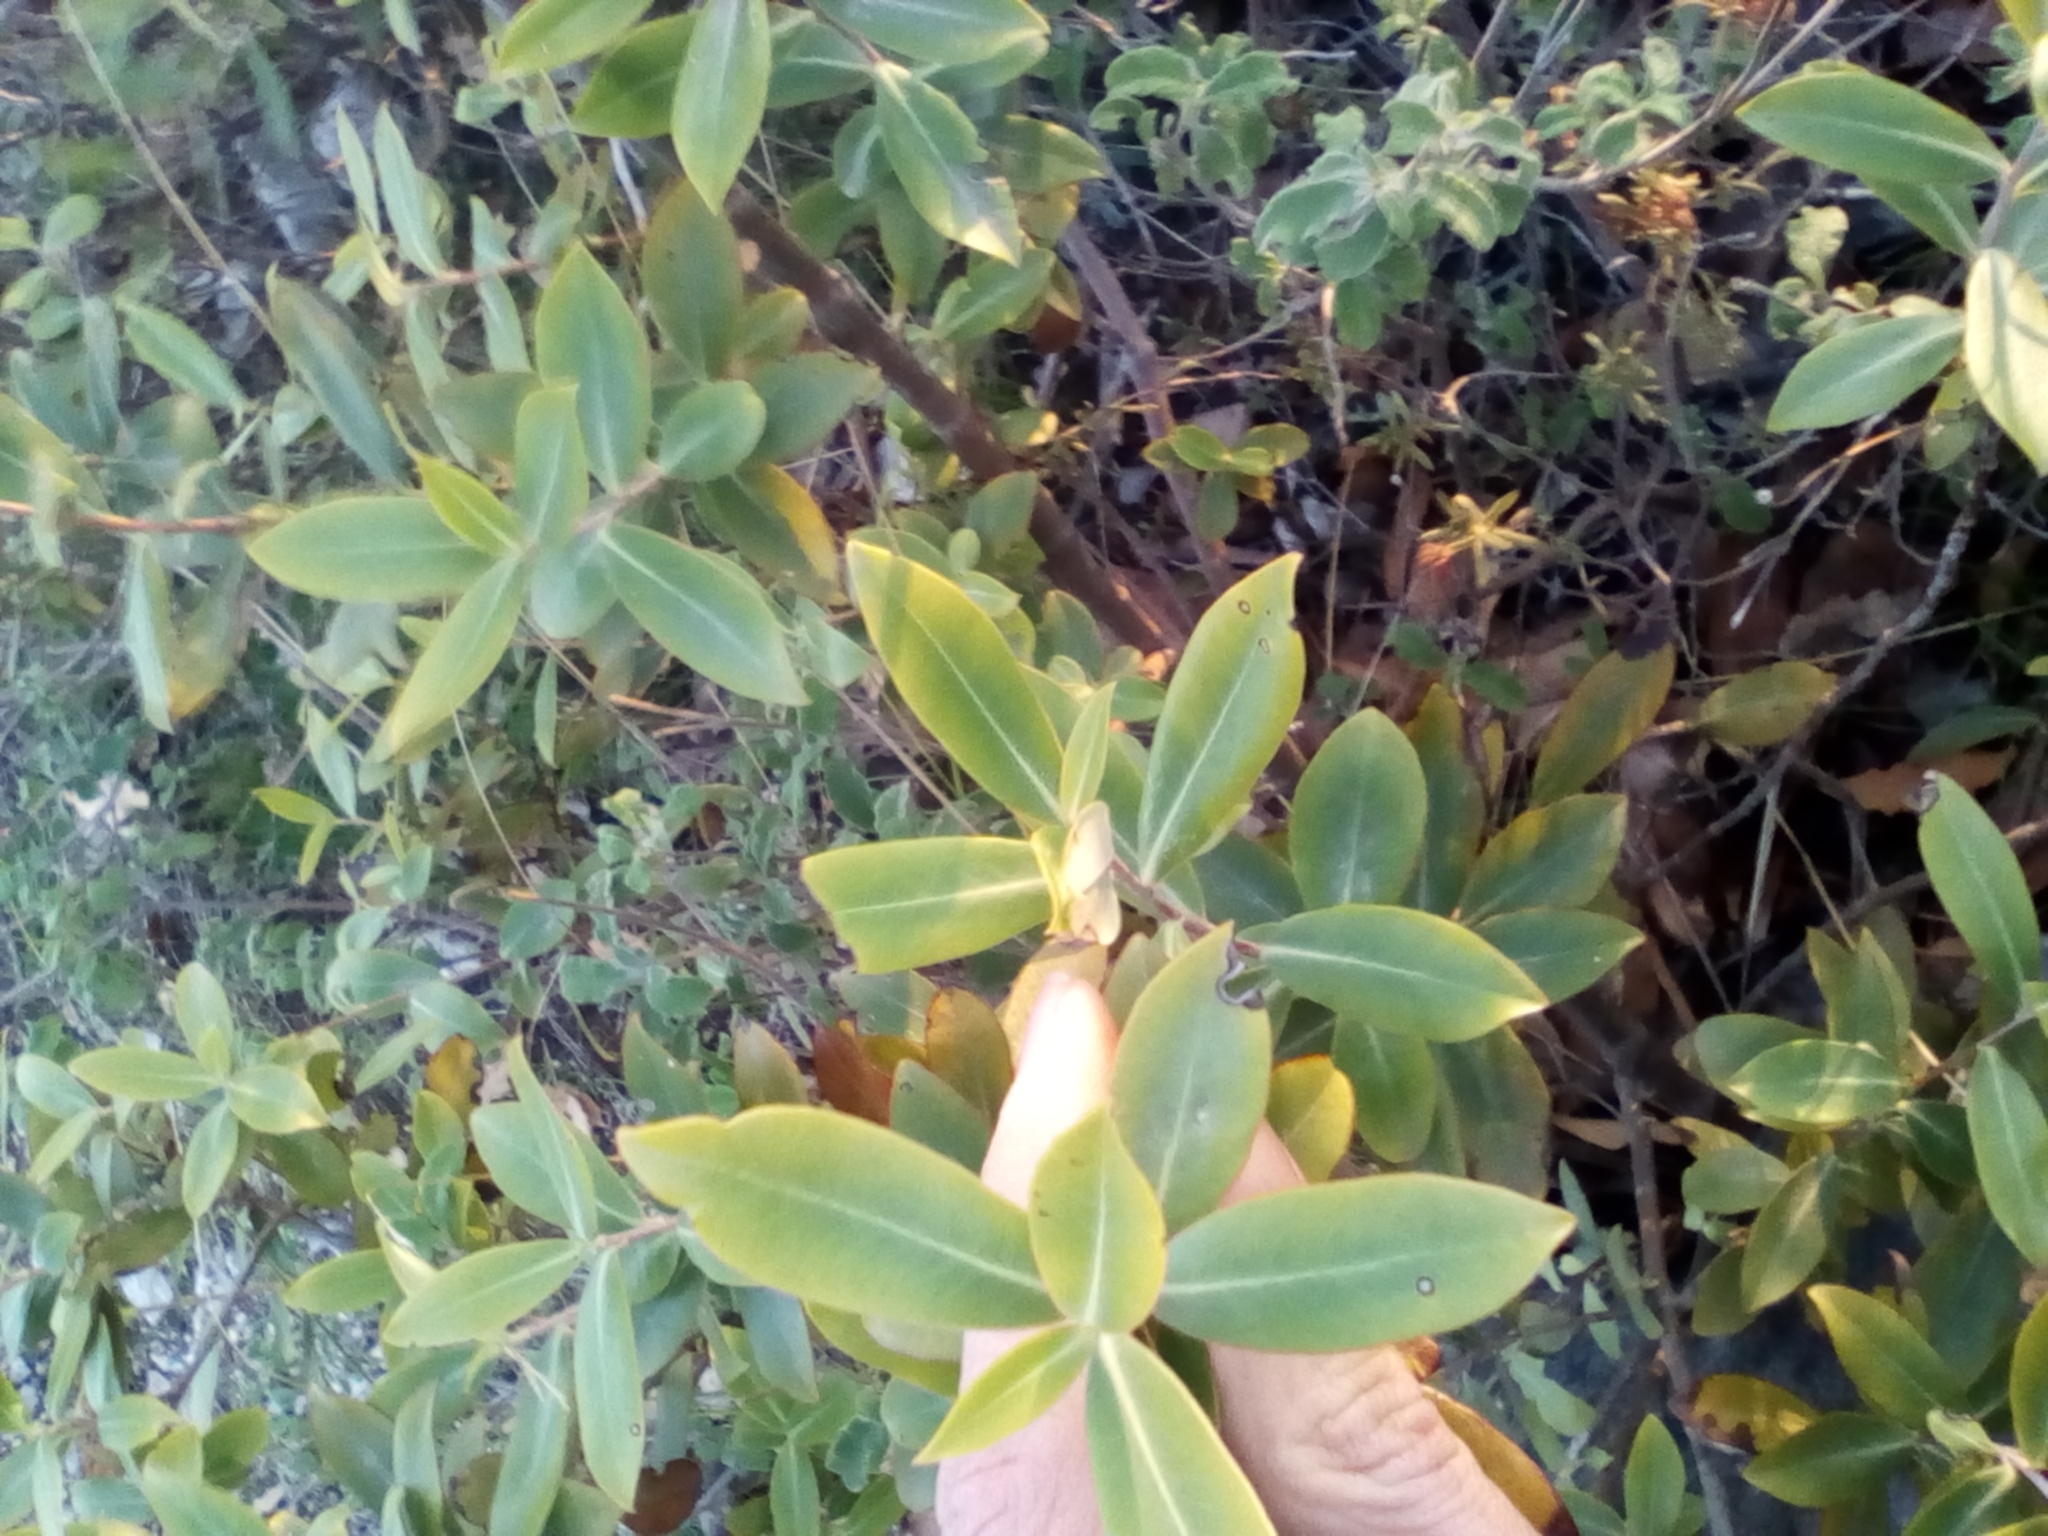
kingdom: Plantae
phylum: Tracheophyta
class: Magnoliopsida
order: Apiales
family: Apiaceae
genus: Bupleurum
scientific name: Bupleurum fruticosum
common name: Shrubby hare's-ear
